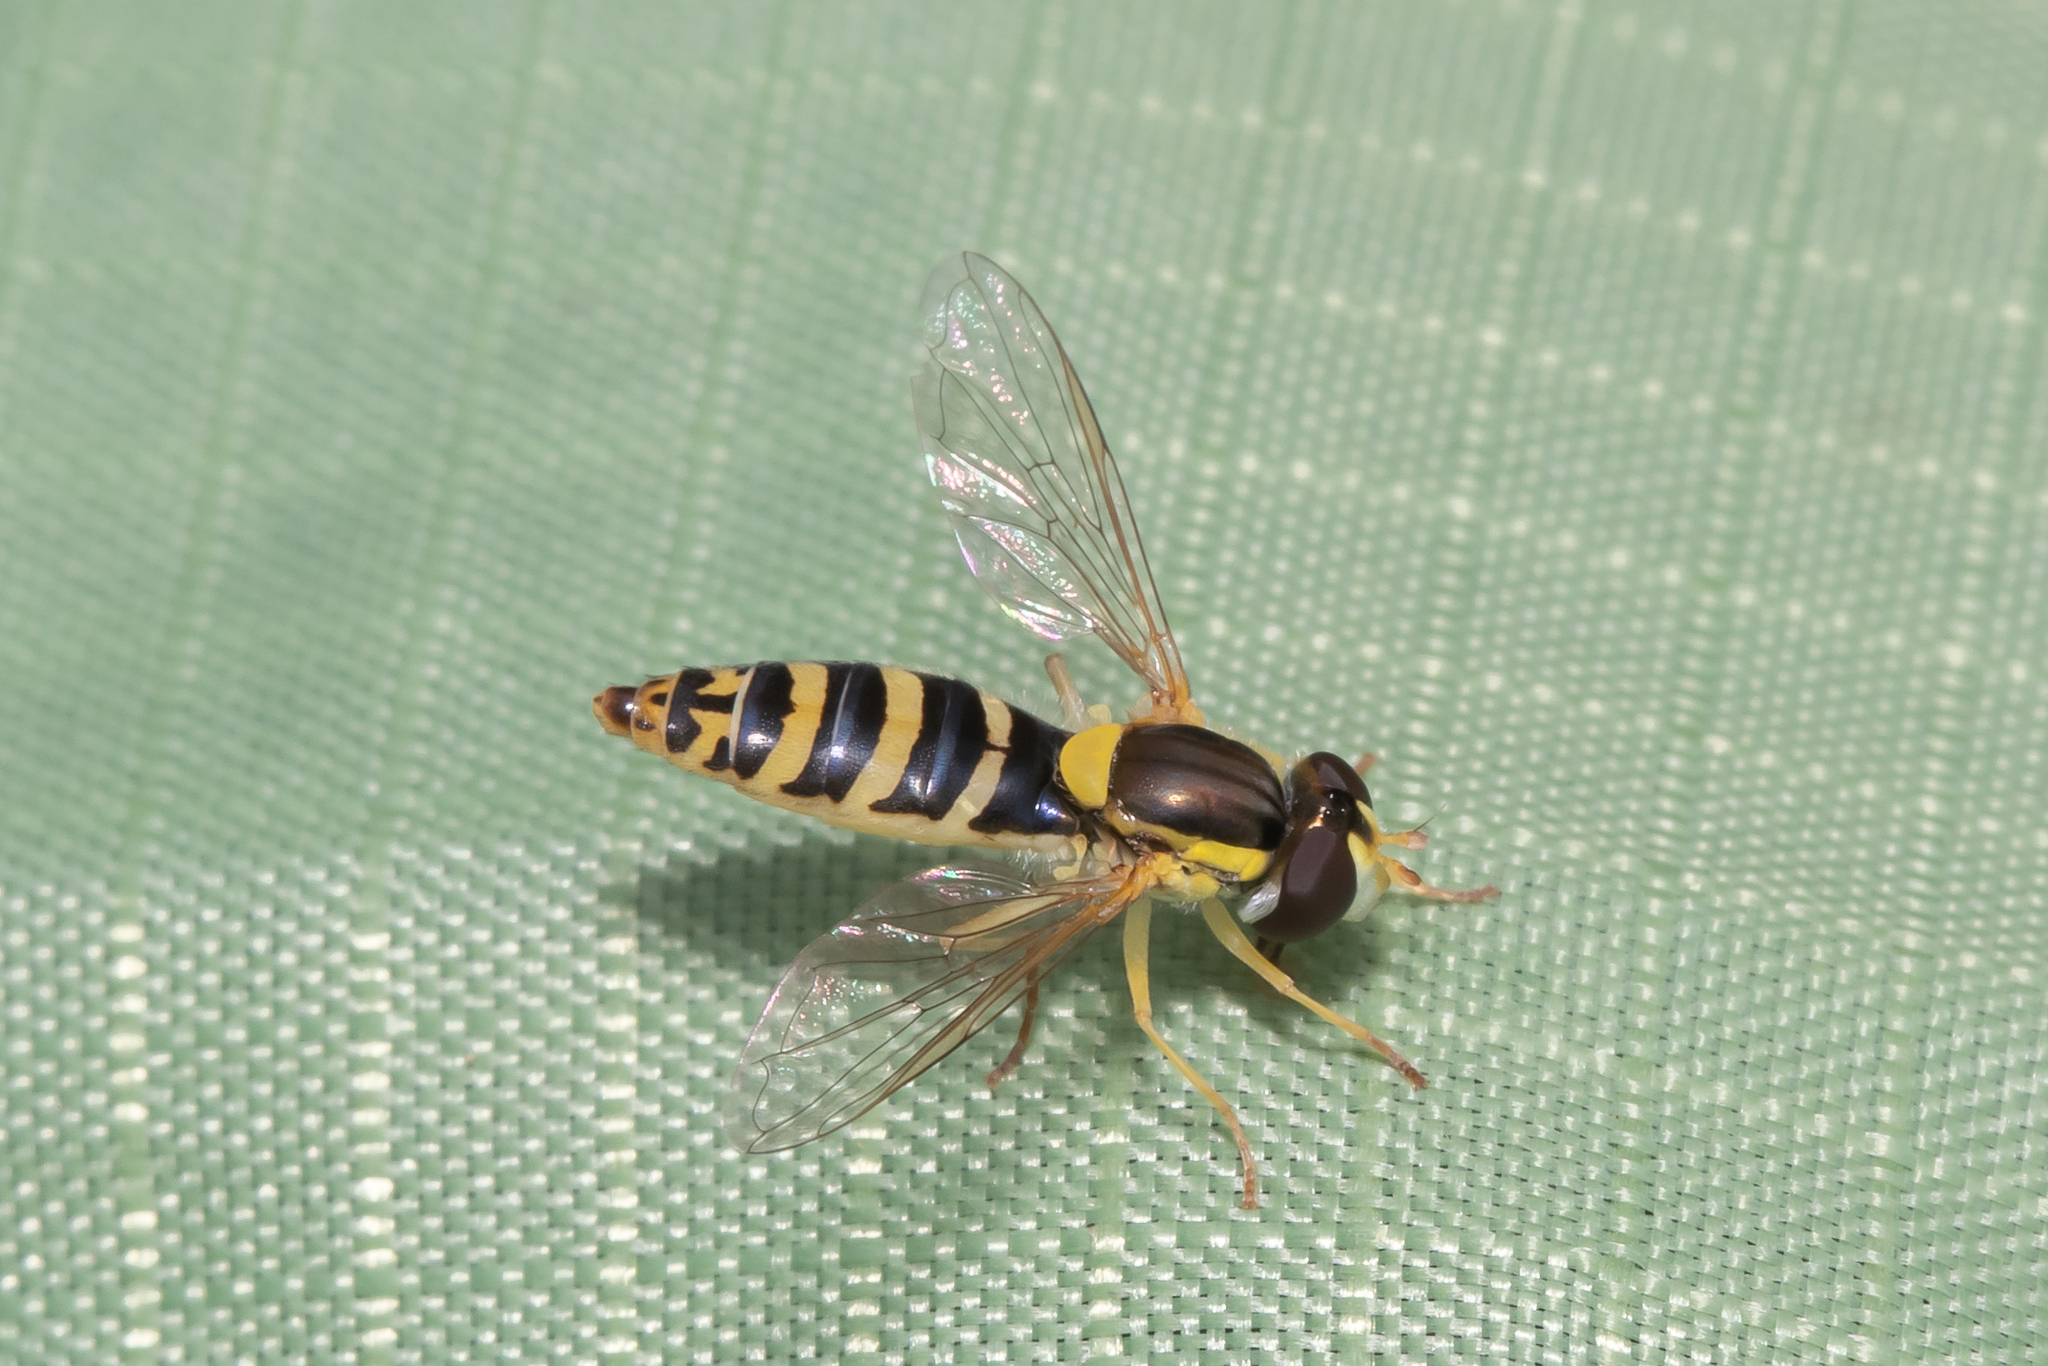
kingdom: Animalia
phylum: Arthropoda
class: Insecta
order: Diptera
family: Syrphidae
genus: Sphaerophoria
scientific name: Sphaerophoria
